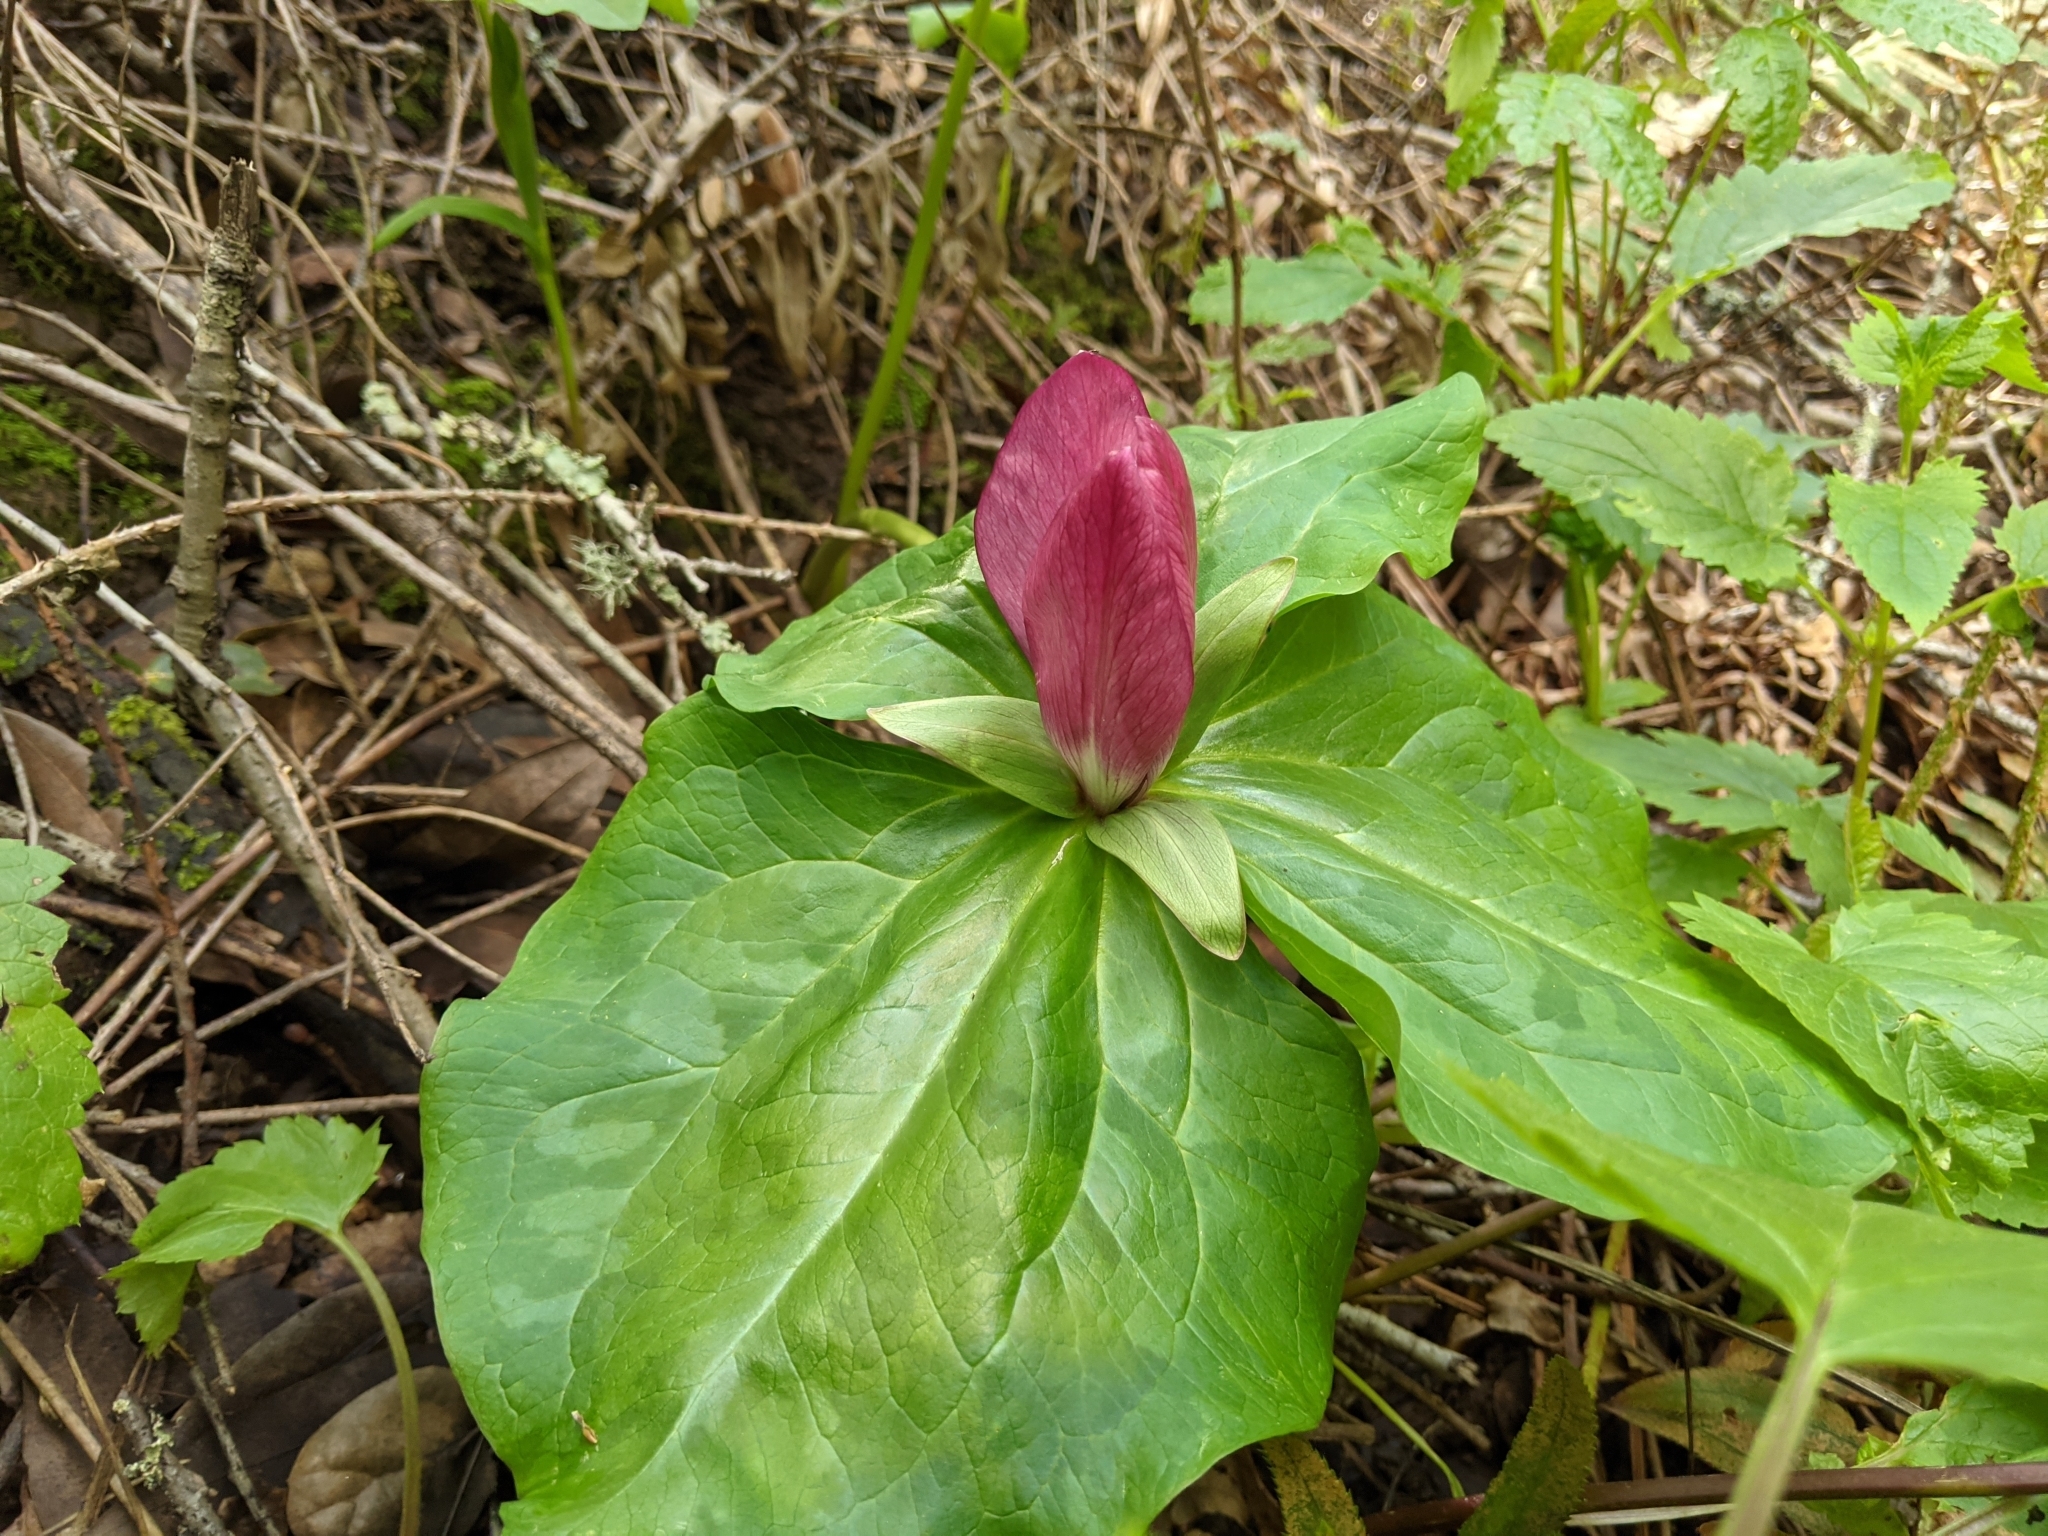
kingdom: Plantae
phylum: Tracheophyta
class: Liliopsida
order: Liliales
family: Melanthiaceae
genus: Trillium
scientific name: Trillium chloropetalum
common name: Giant trillium
